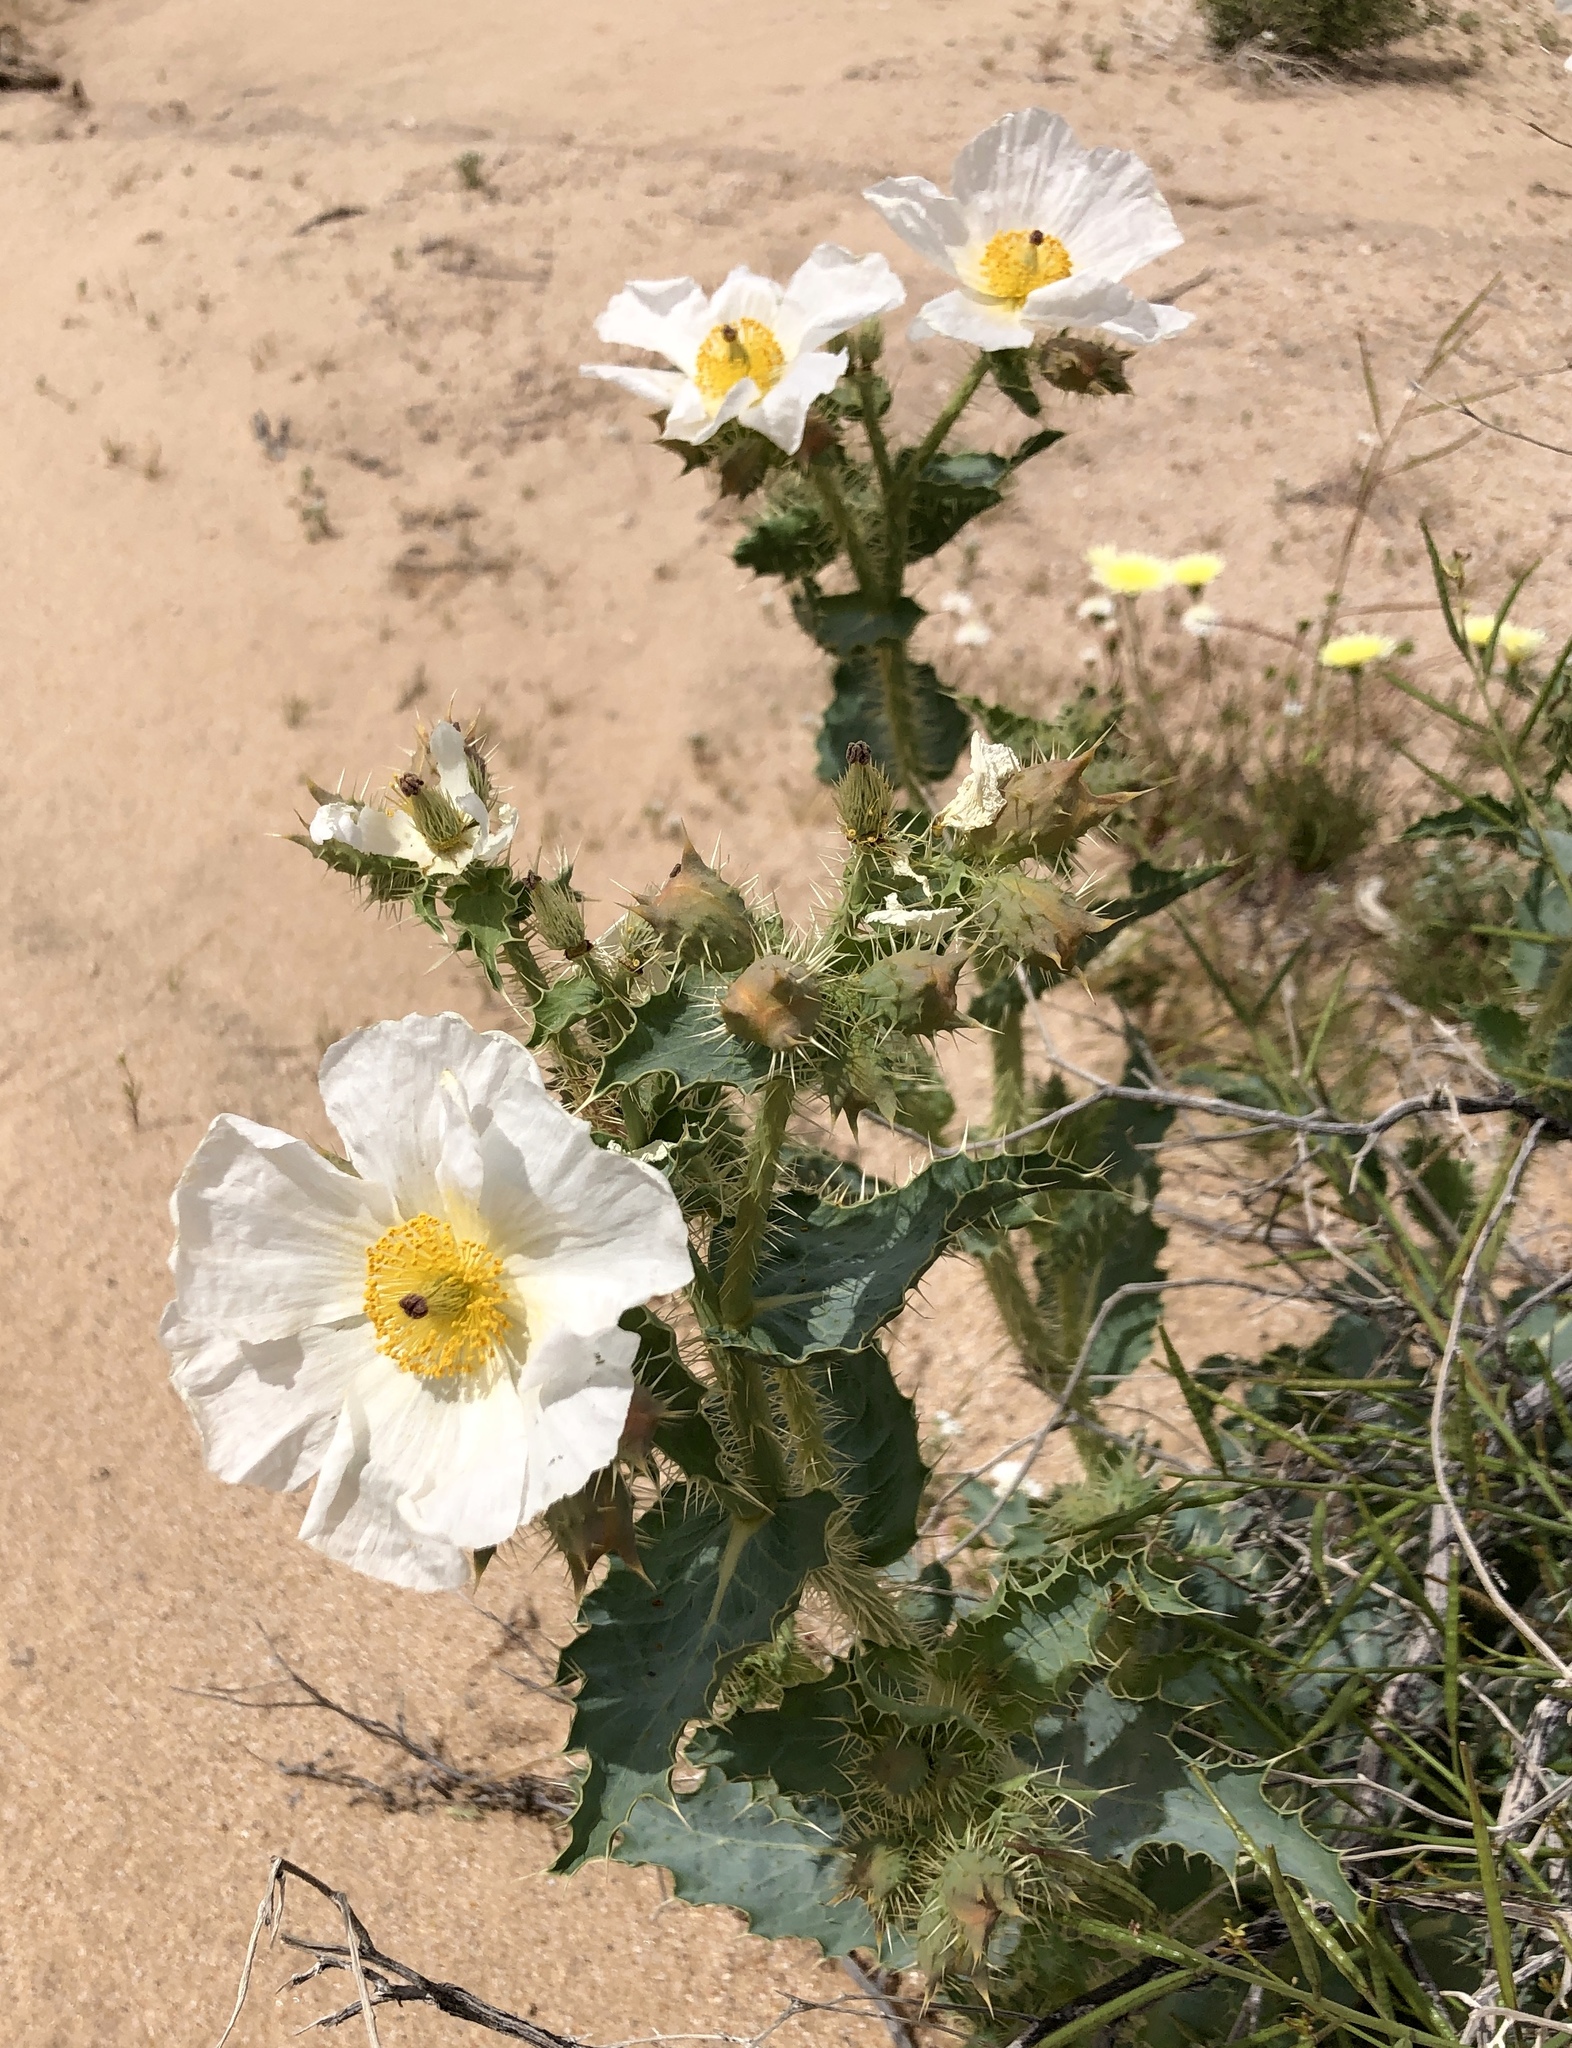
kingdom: Plantae
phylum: Tracheophyta
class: Magnoliopsida
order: Ranunculales
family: Papaveraceae
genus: Argemone
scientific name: Argemone munita
